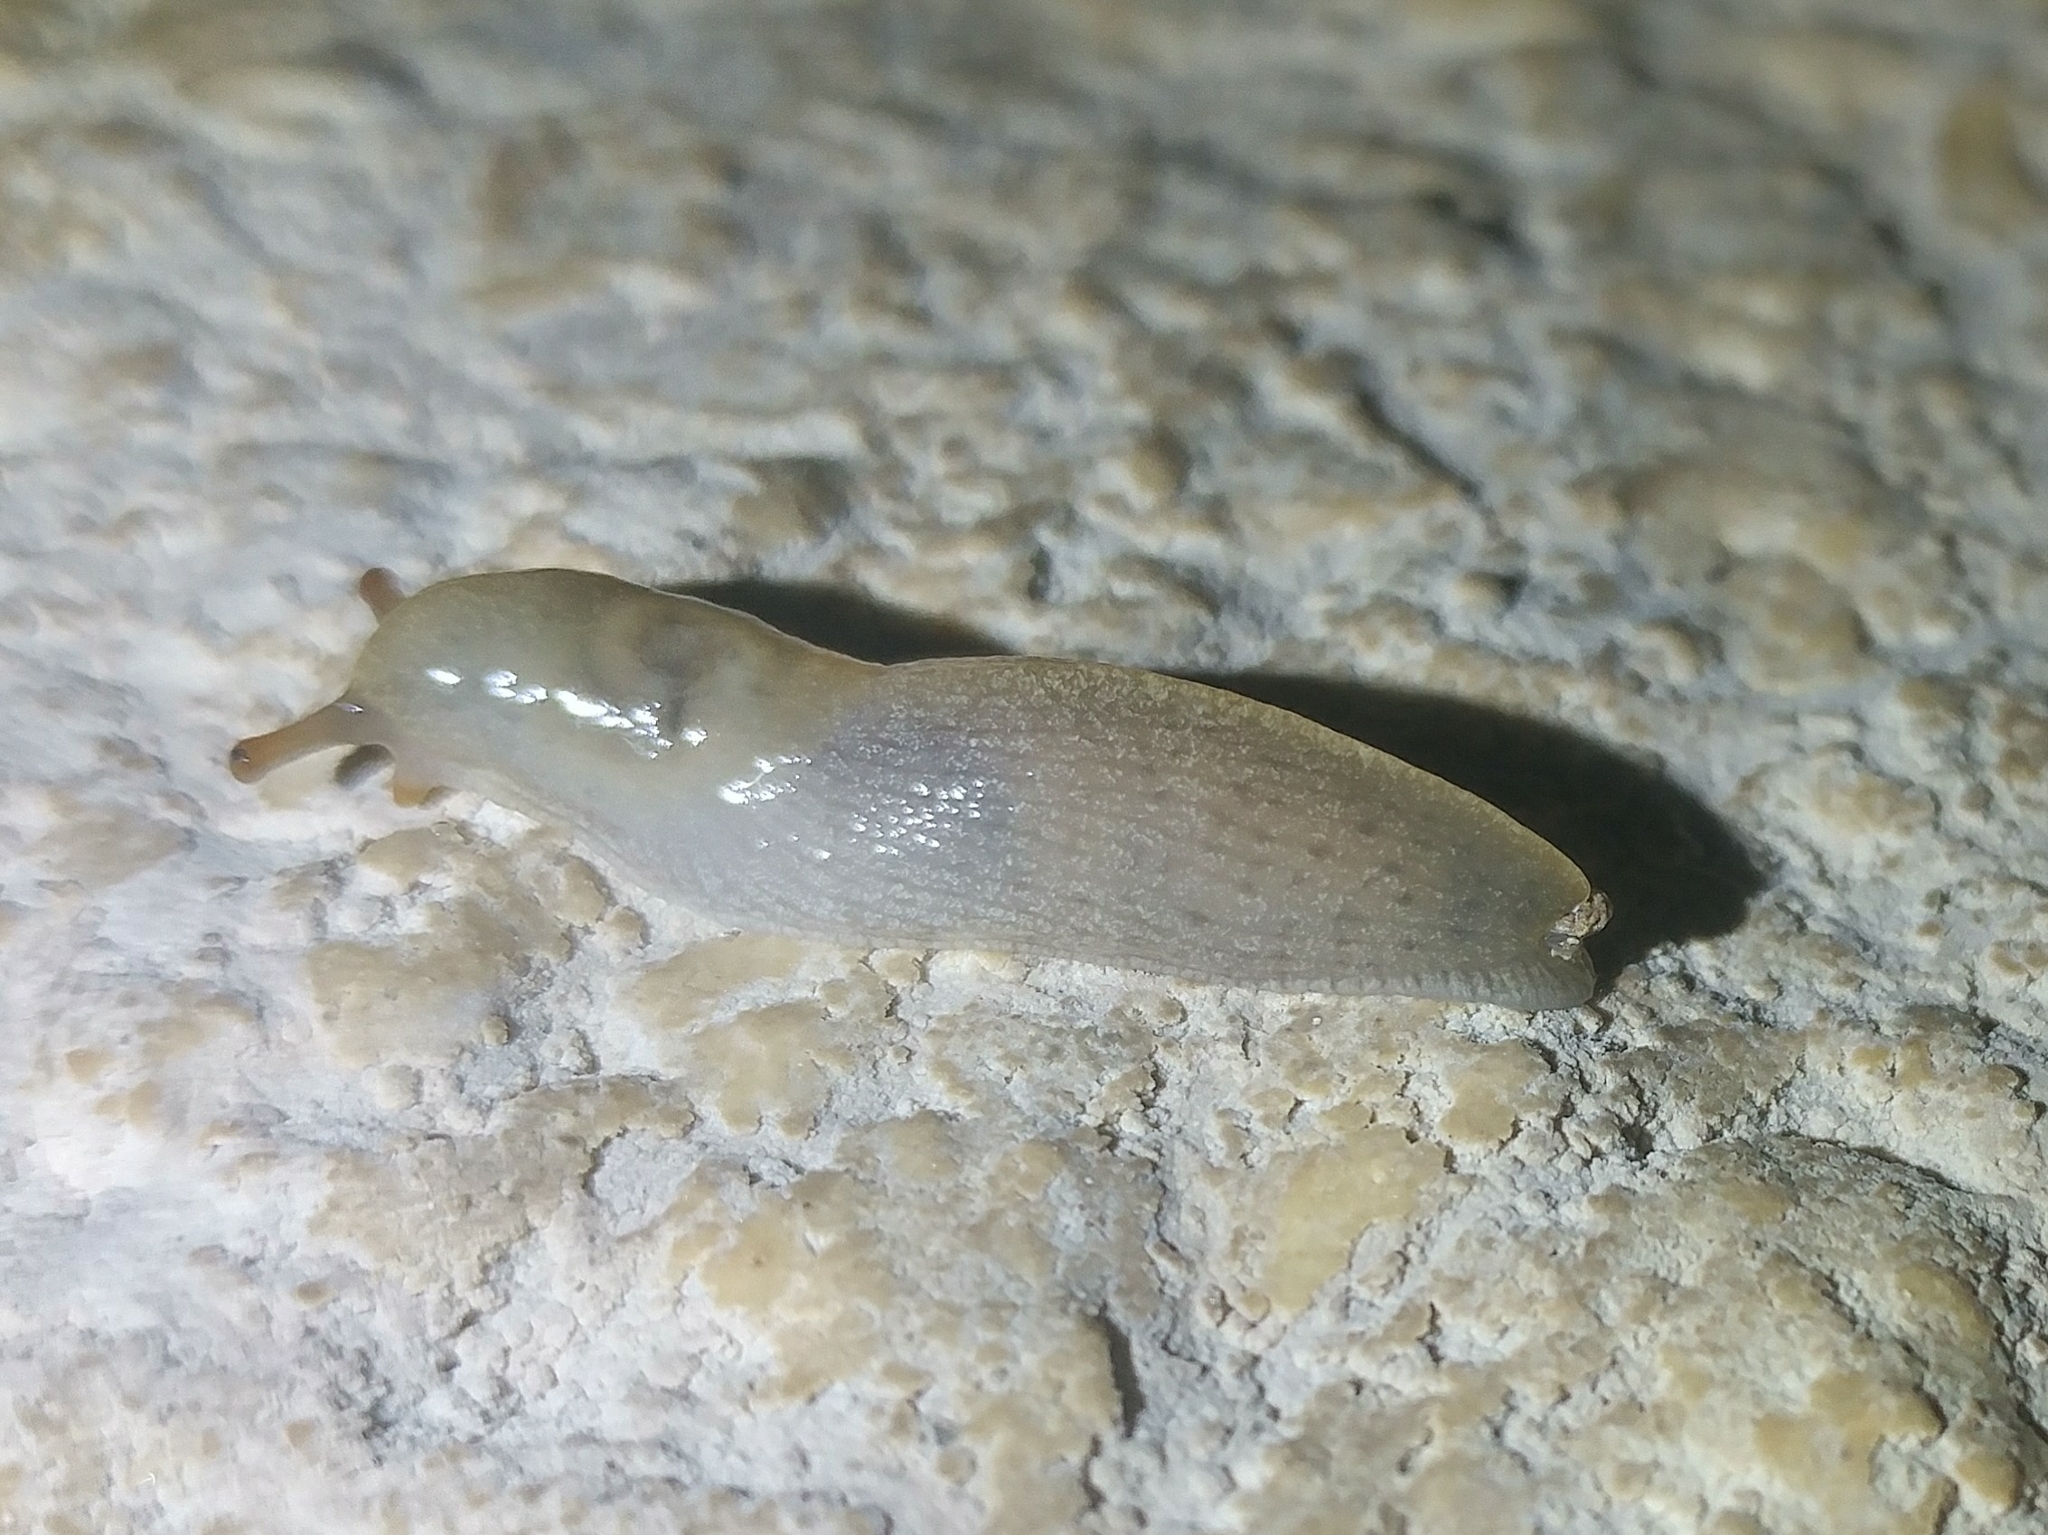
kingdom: Animalia
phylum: Mollusca
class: Gastropoda
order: Stylommatophora
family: Ariolimacidae
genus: Ariolimax
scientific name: Ariolimax stramineus
